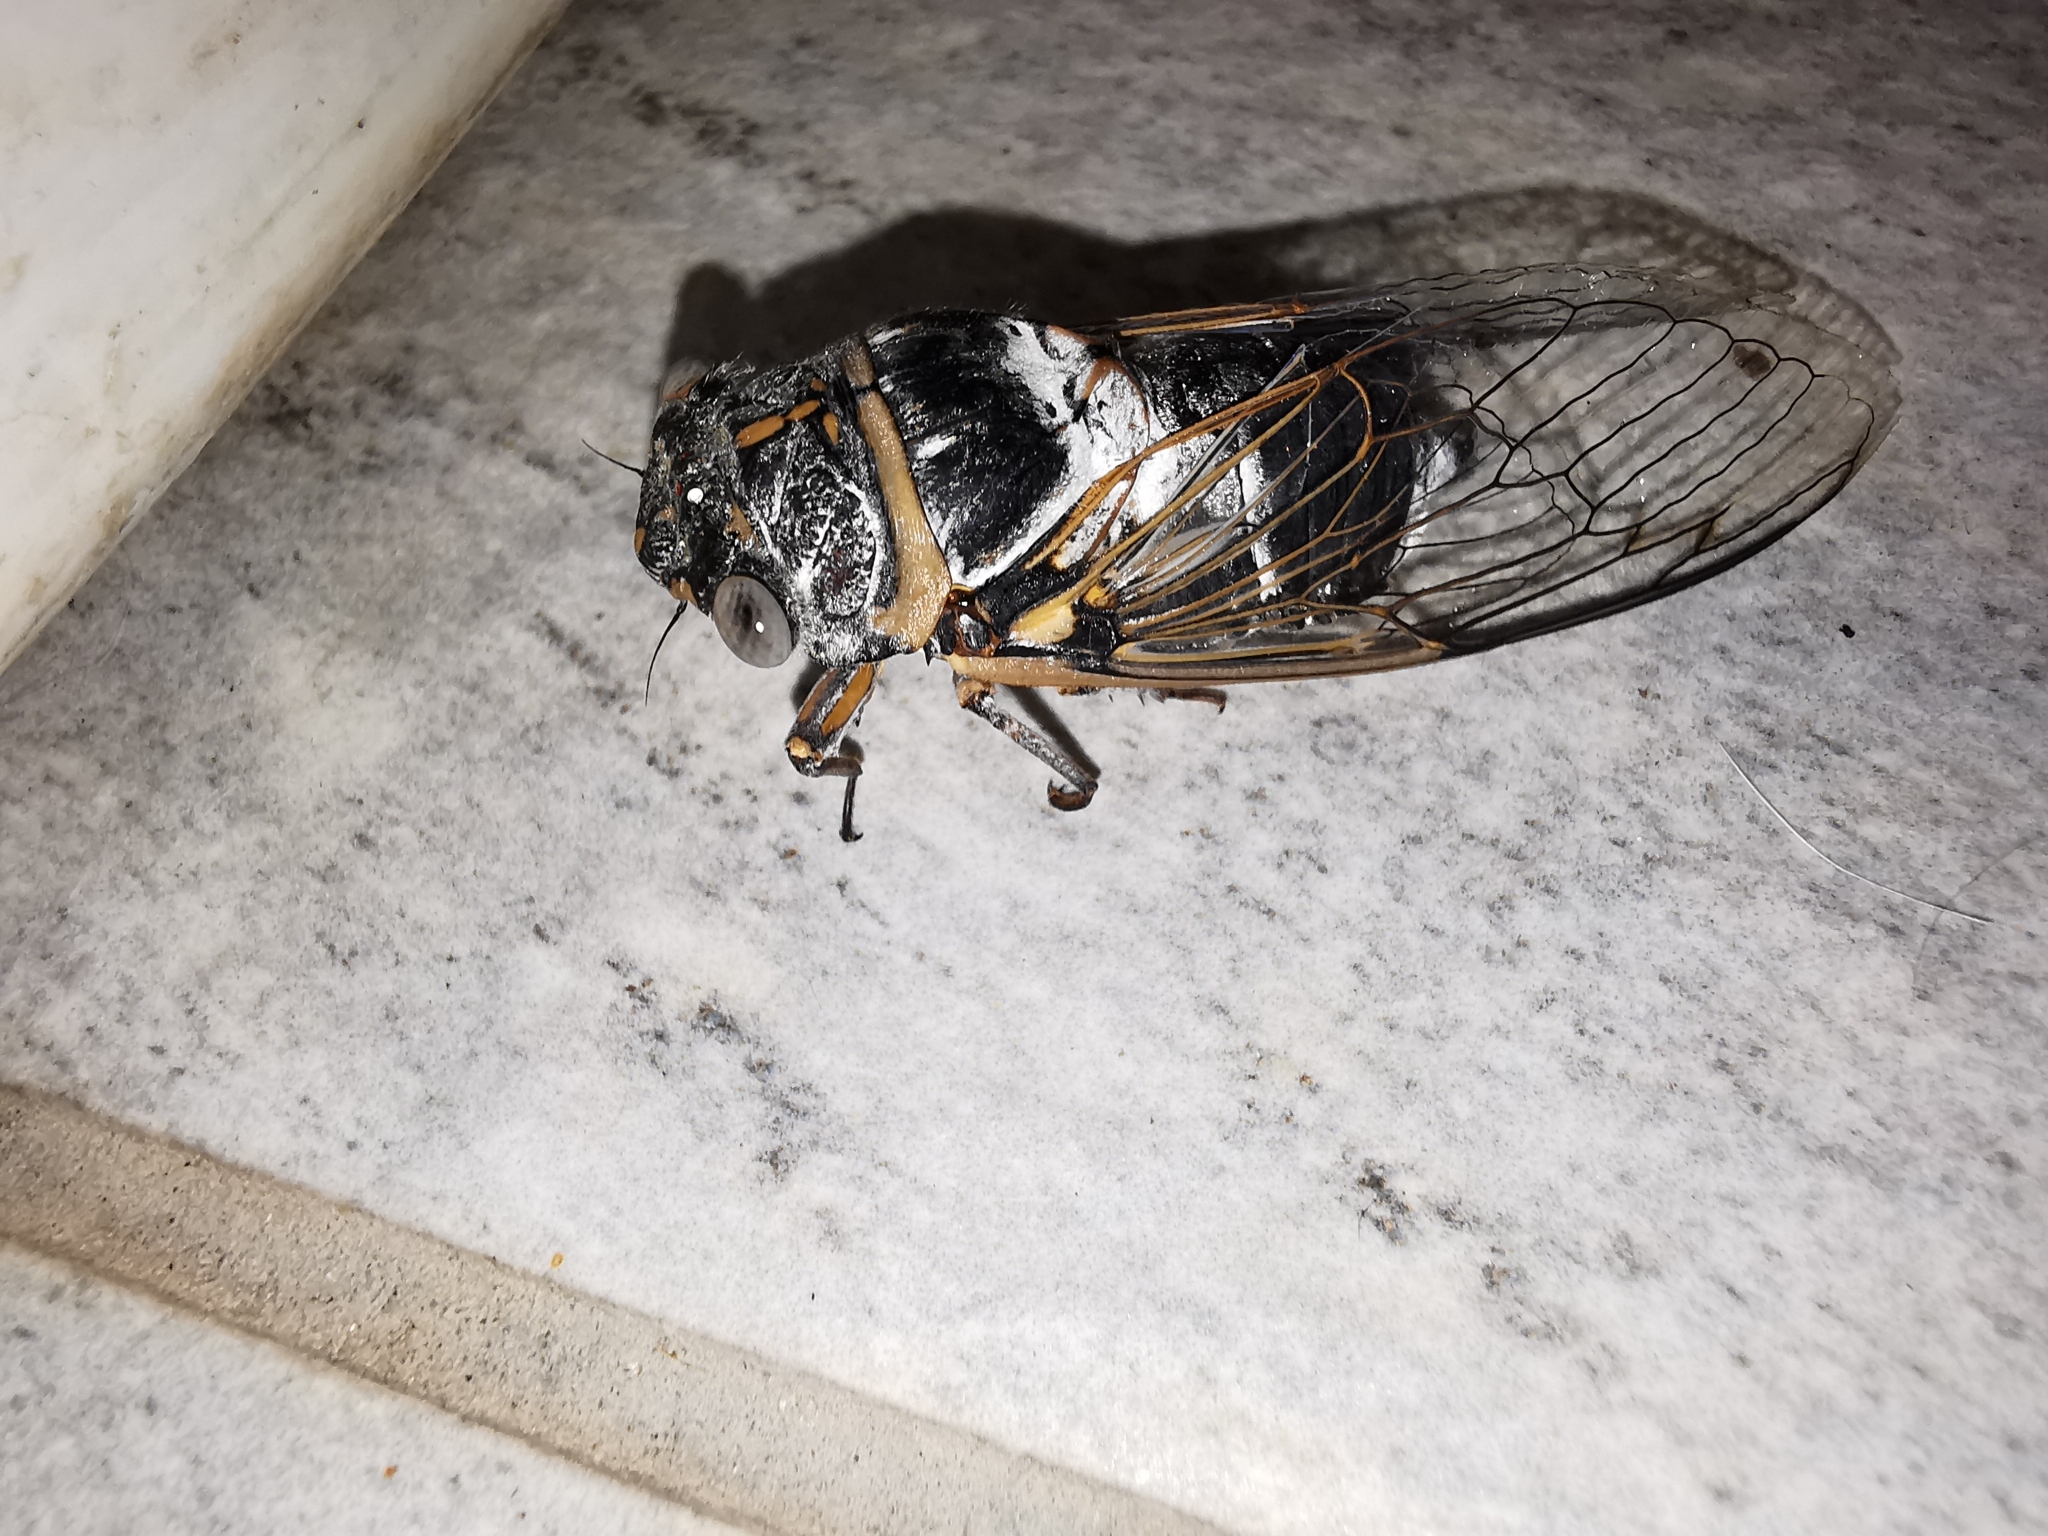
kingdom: Animalia
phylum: Arthropoda
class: Insecta
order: Hemiptera
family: Cicadidae
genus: Lyristes
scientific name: Lyristes plebejus
